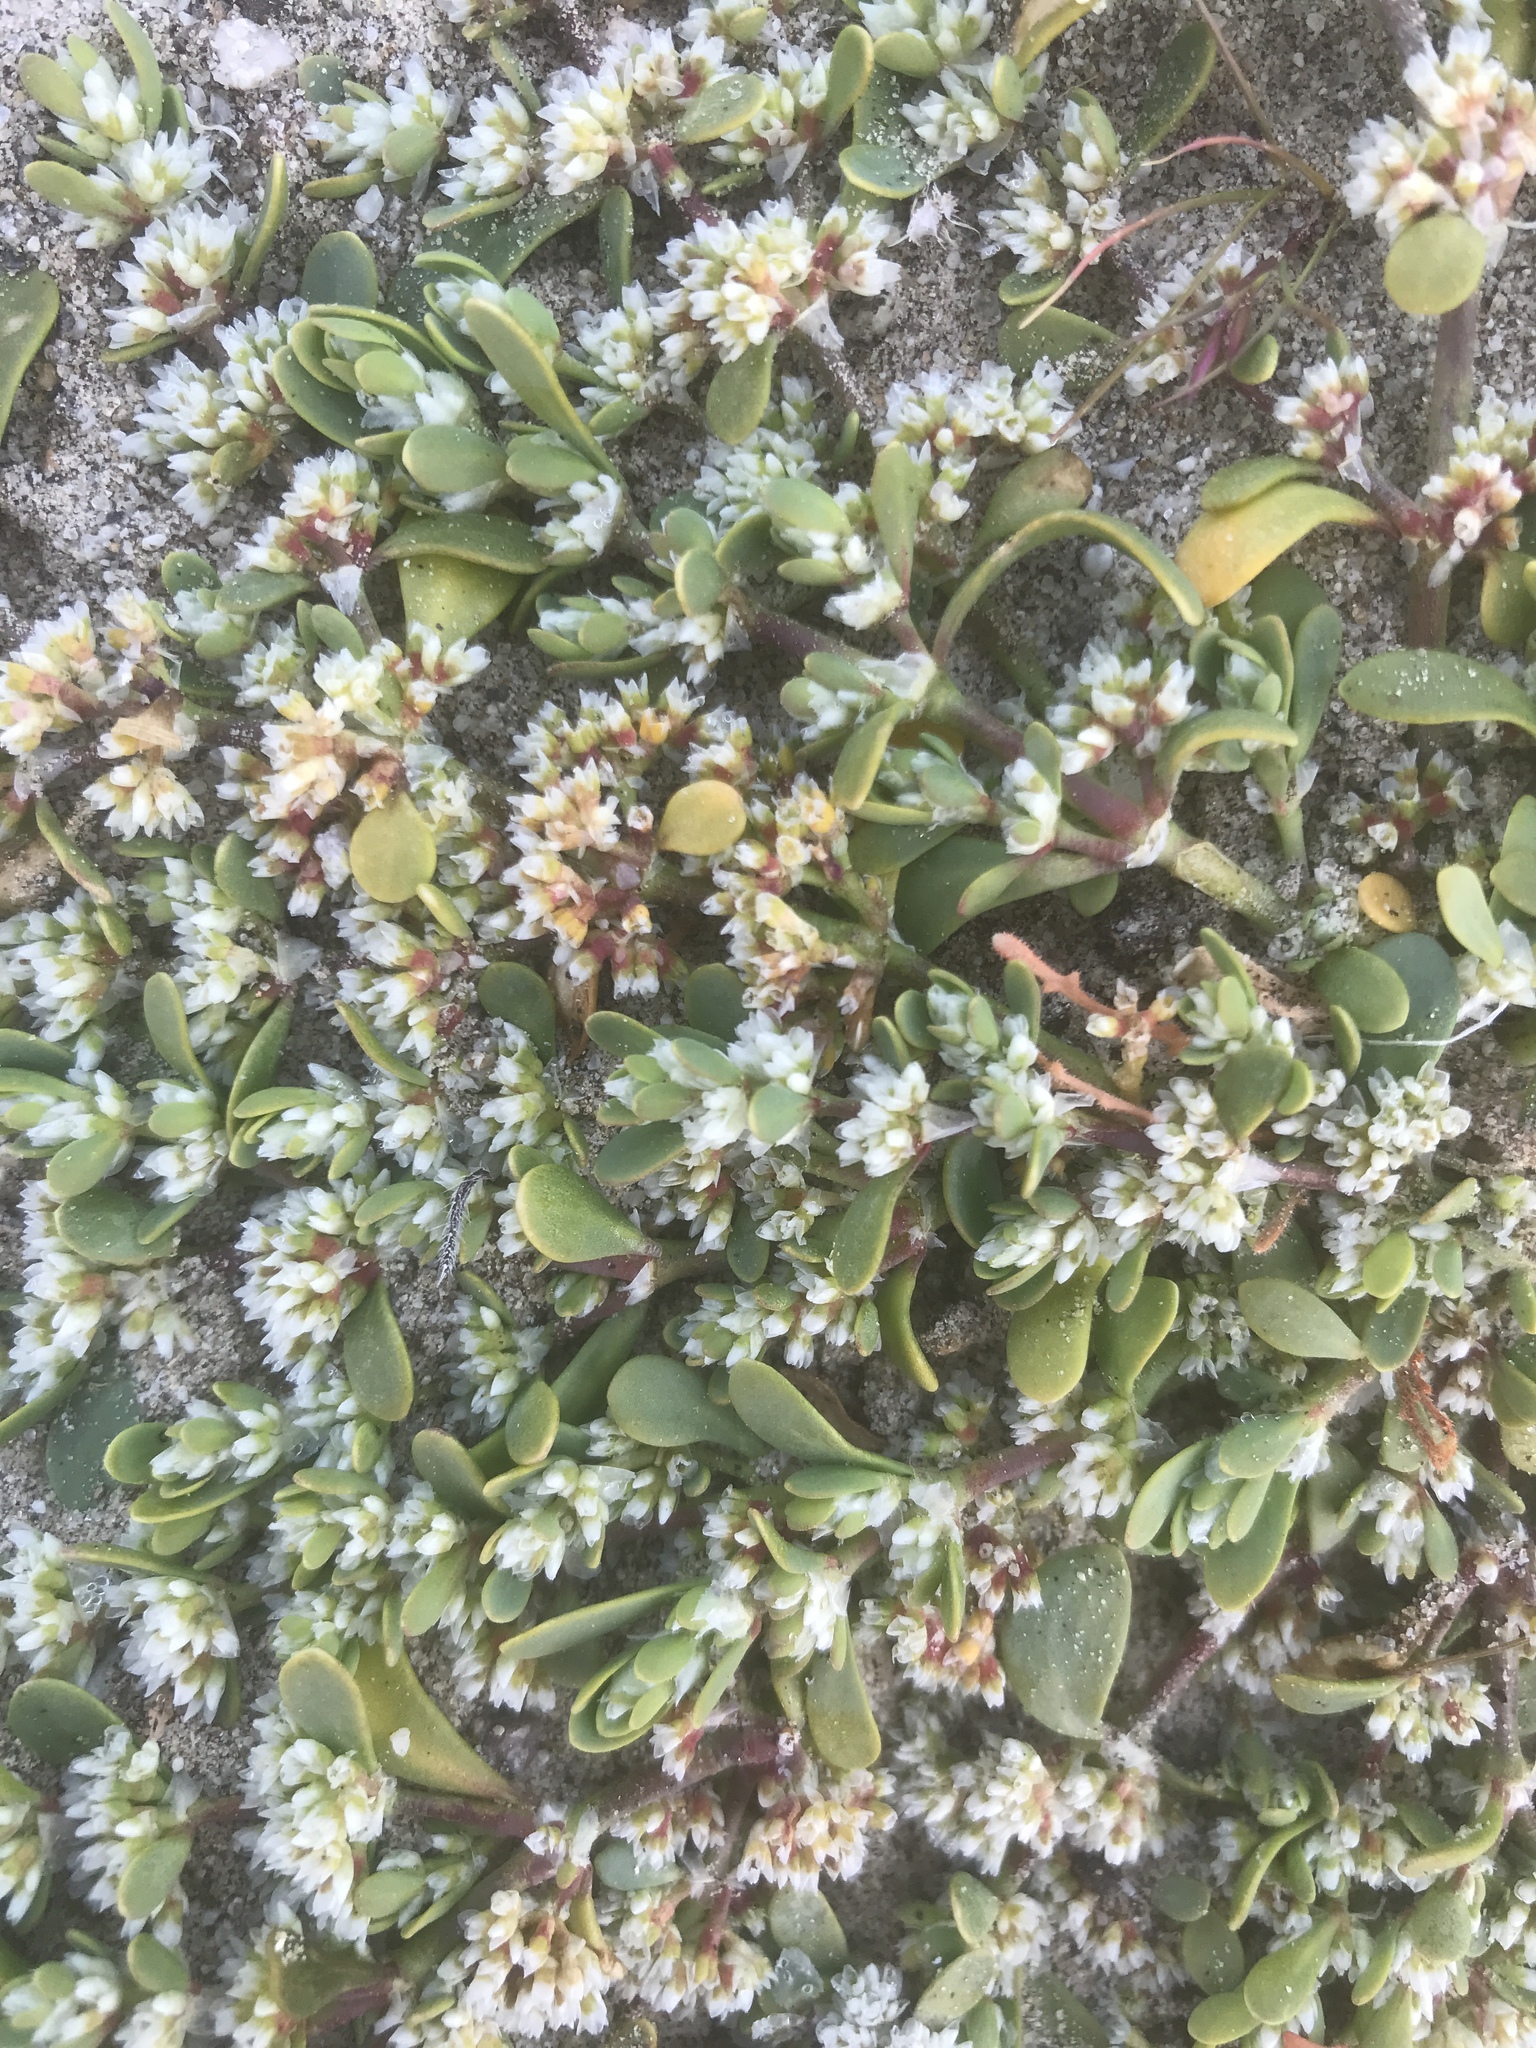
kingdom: Plantae
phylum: Tracheophyta
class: Magnoliopsida
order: Caryophyllales
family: Caryophyllaceae
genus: Achyronychia
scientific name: Achyronychia cooperi
